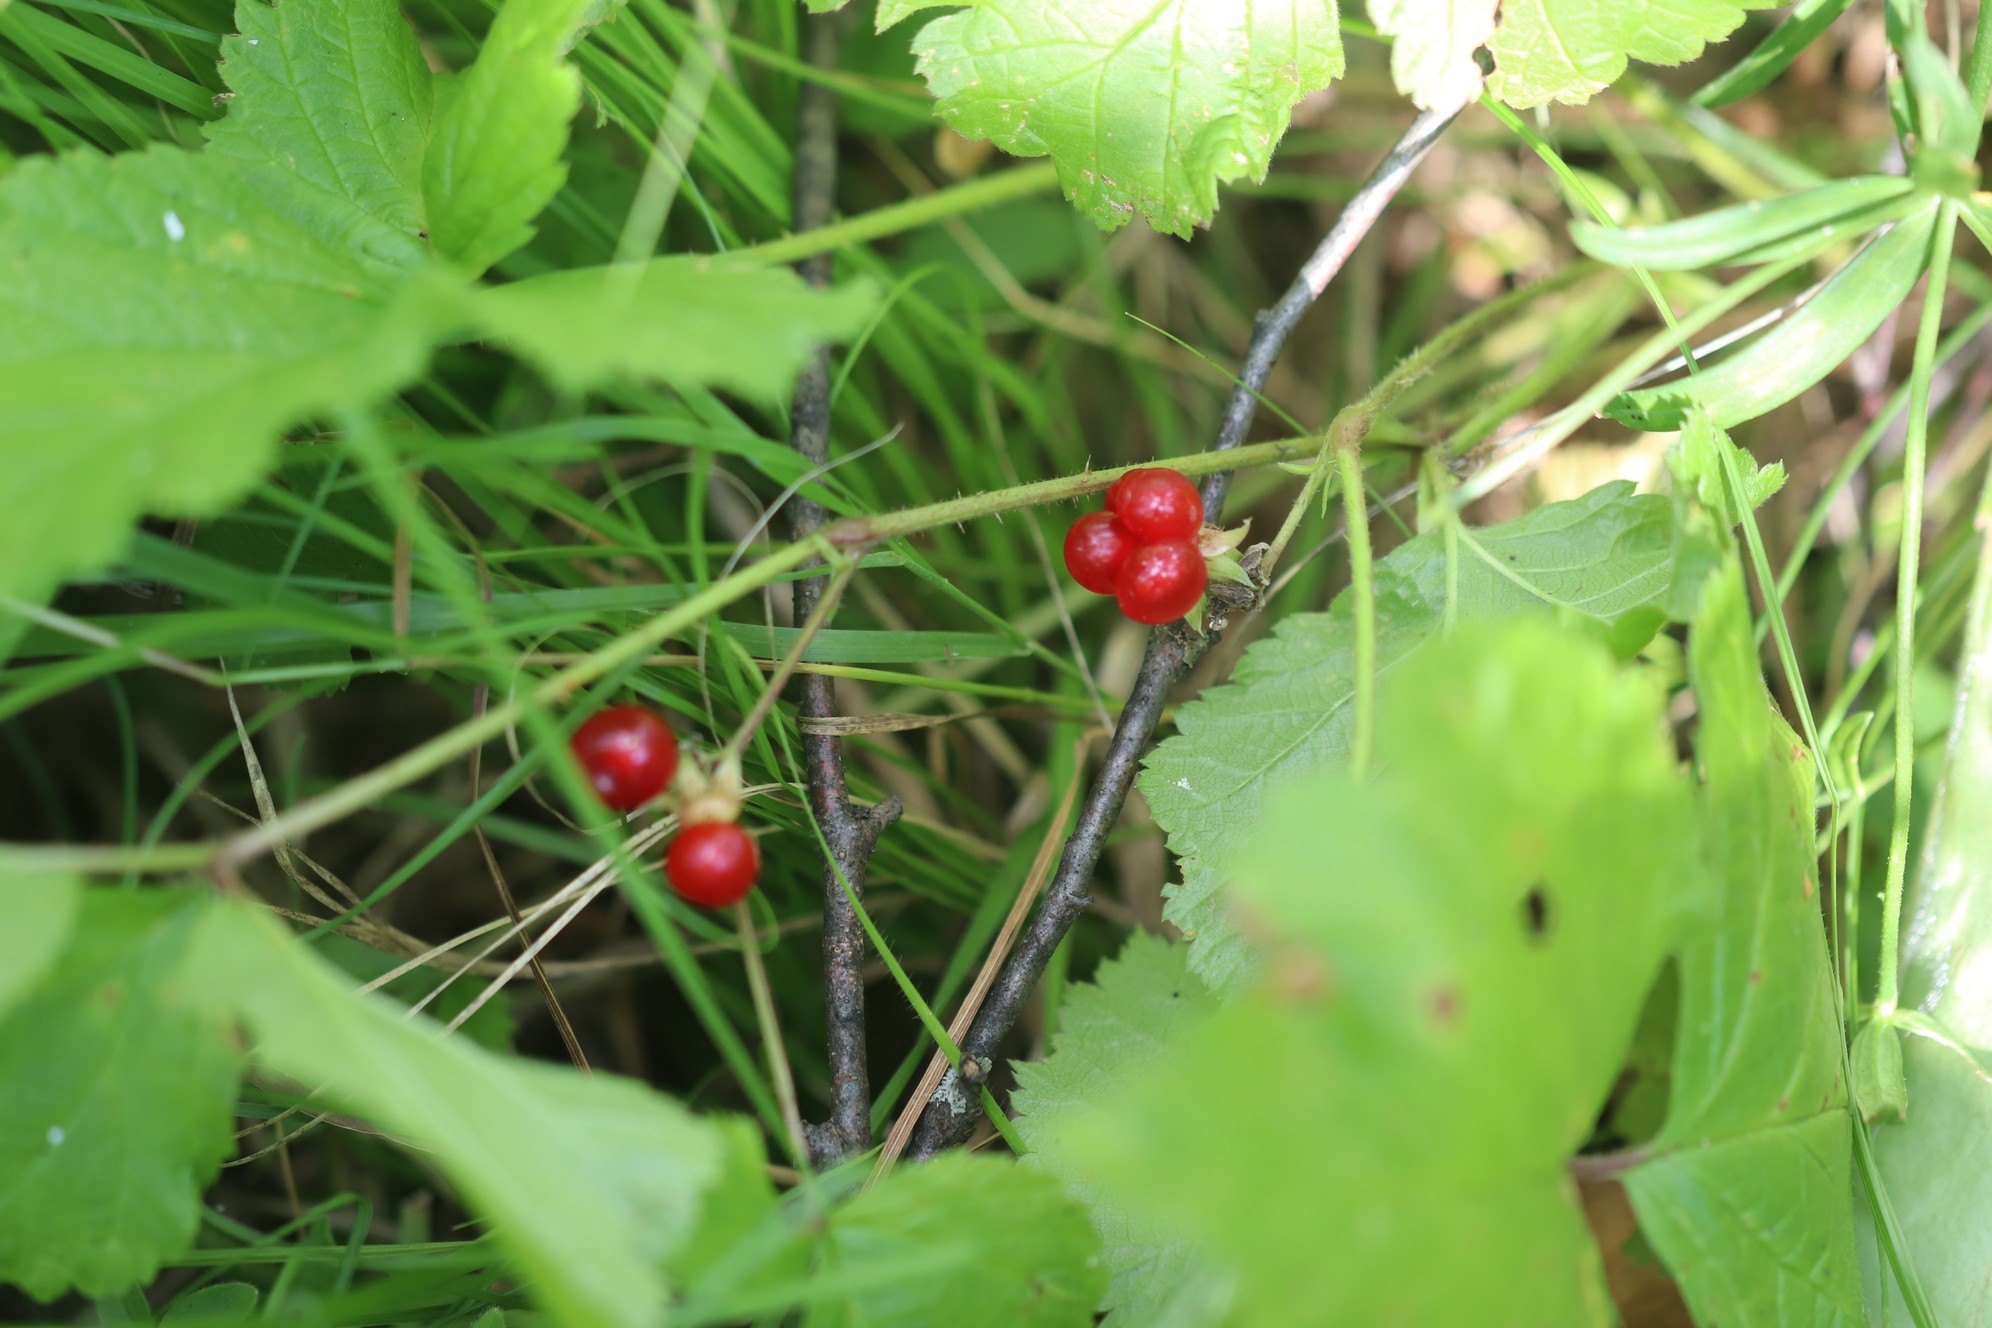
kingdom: Plantae
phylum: Tracheophyta
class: Magnoliopsida
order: Rosales
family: Rosaceae
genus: Rubus
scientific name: Rubus saxatilis
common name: Stone bramble
